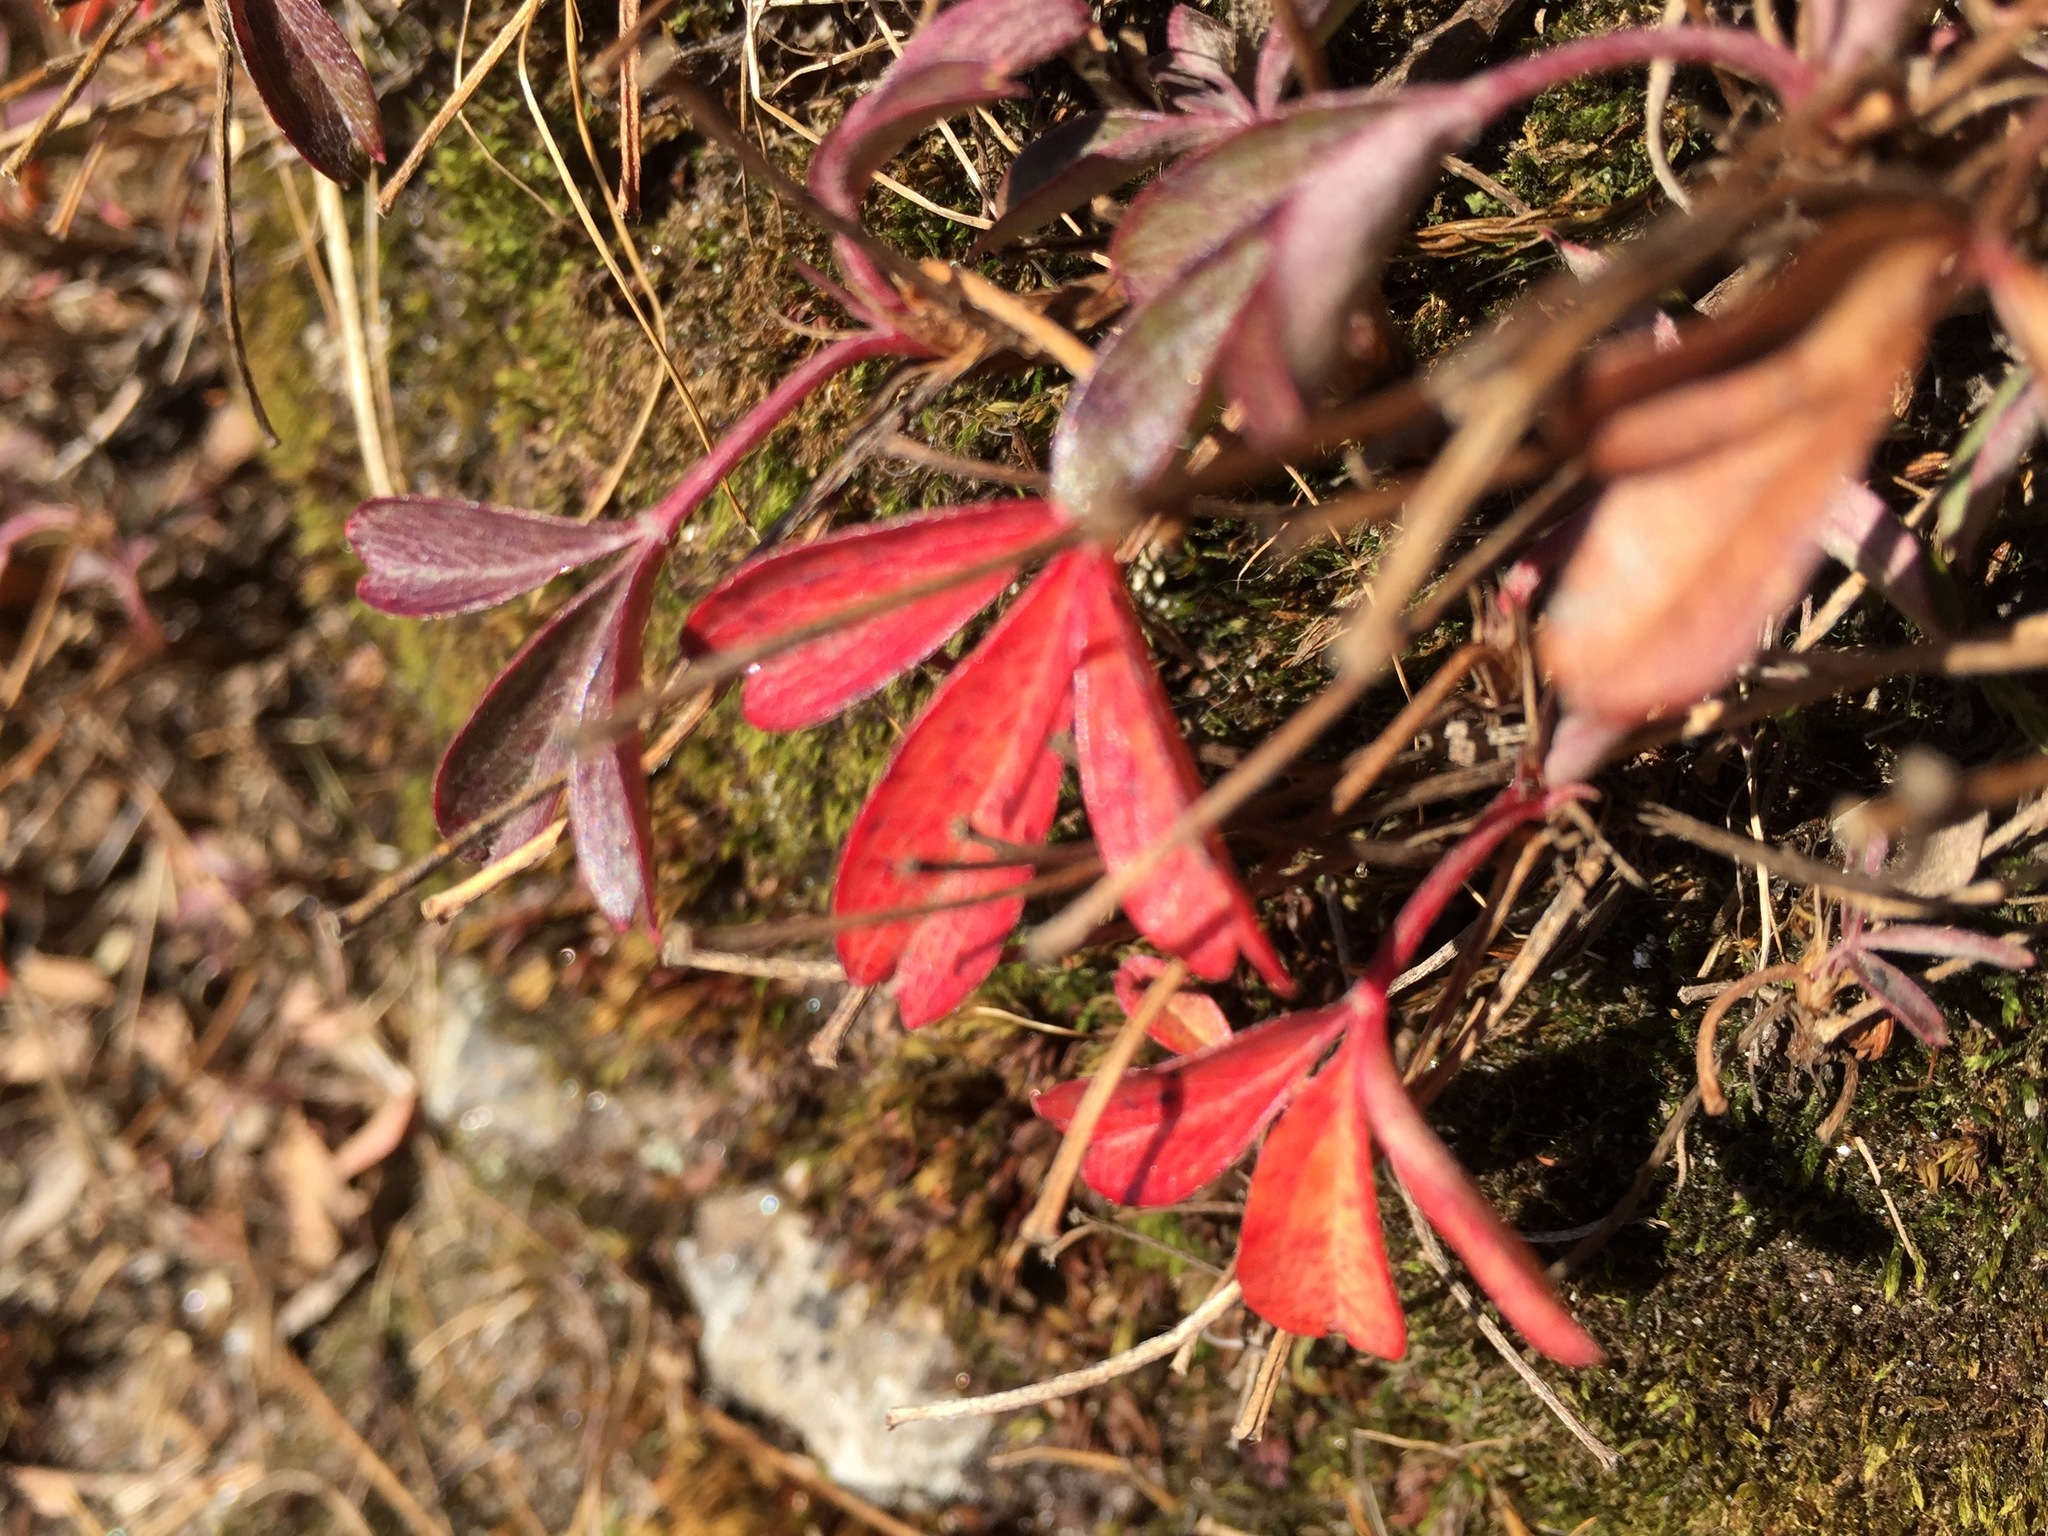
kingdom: Plantae
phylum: Tracheophyta
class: Magnoliopsida
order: Rosales
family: Rosaceae
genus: Sibbaldia
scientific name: Sibbaldia tridentata
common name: Three-toothed cinquefoil
